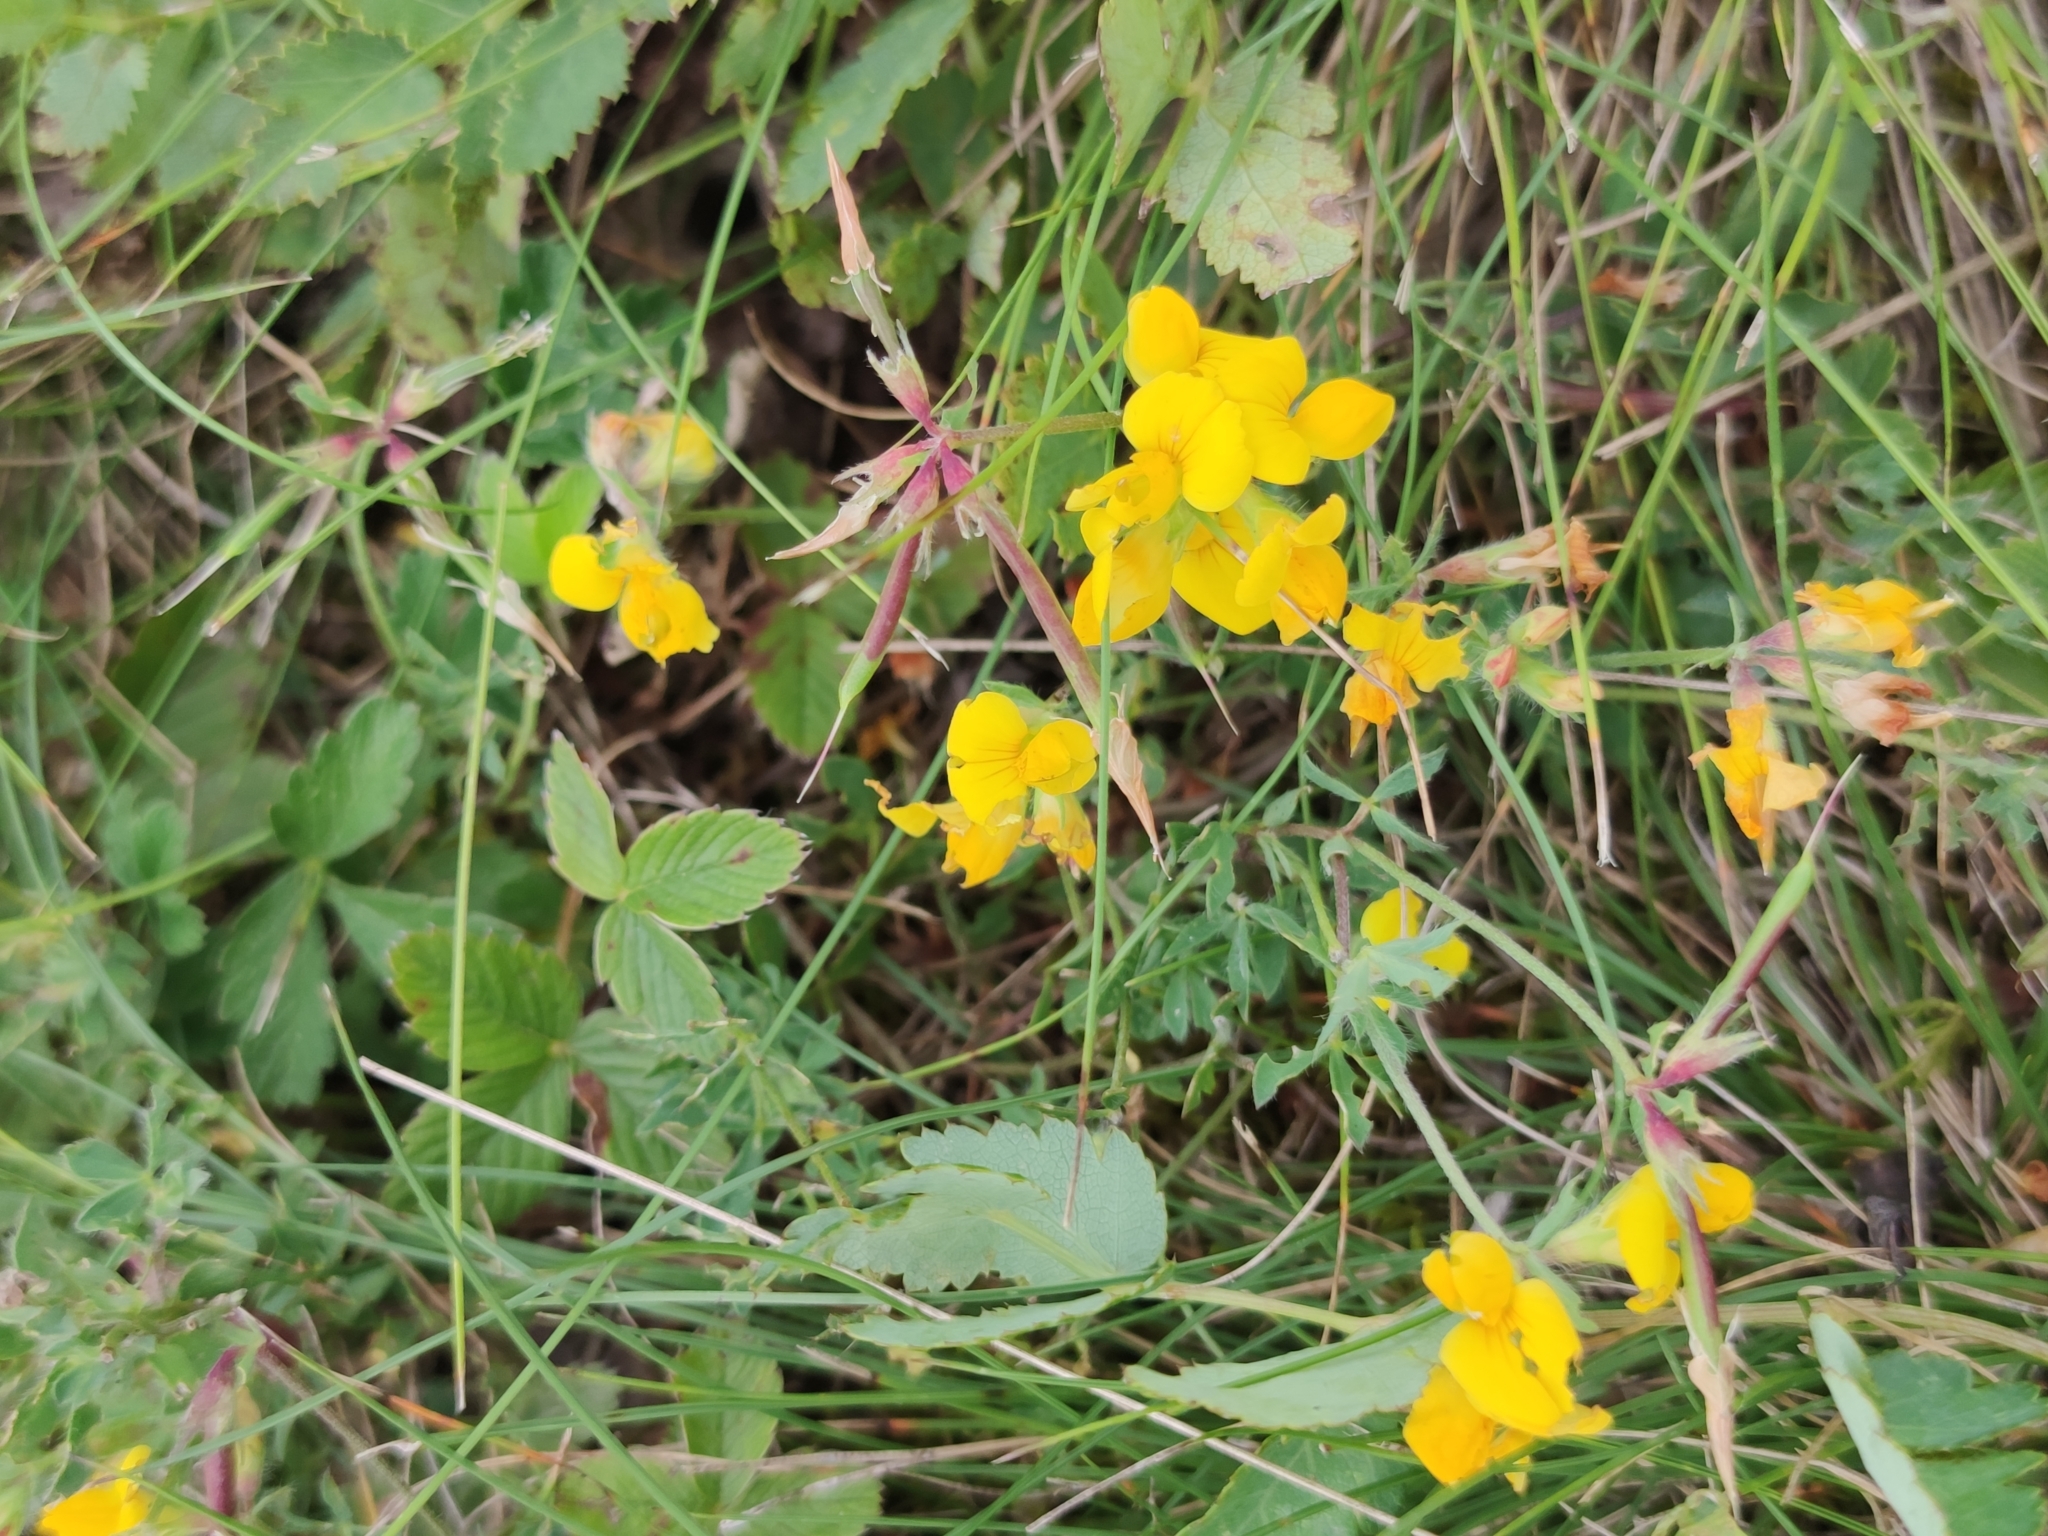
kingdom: Plantae
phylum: Tracheophyta
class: Magnoliopsida
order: Fabales
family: Fabaceae
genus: Lotus
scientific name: Lotus corniculatus
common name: Common bird's-foot-trefoil
